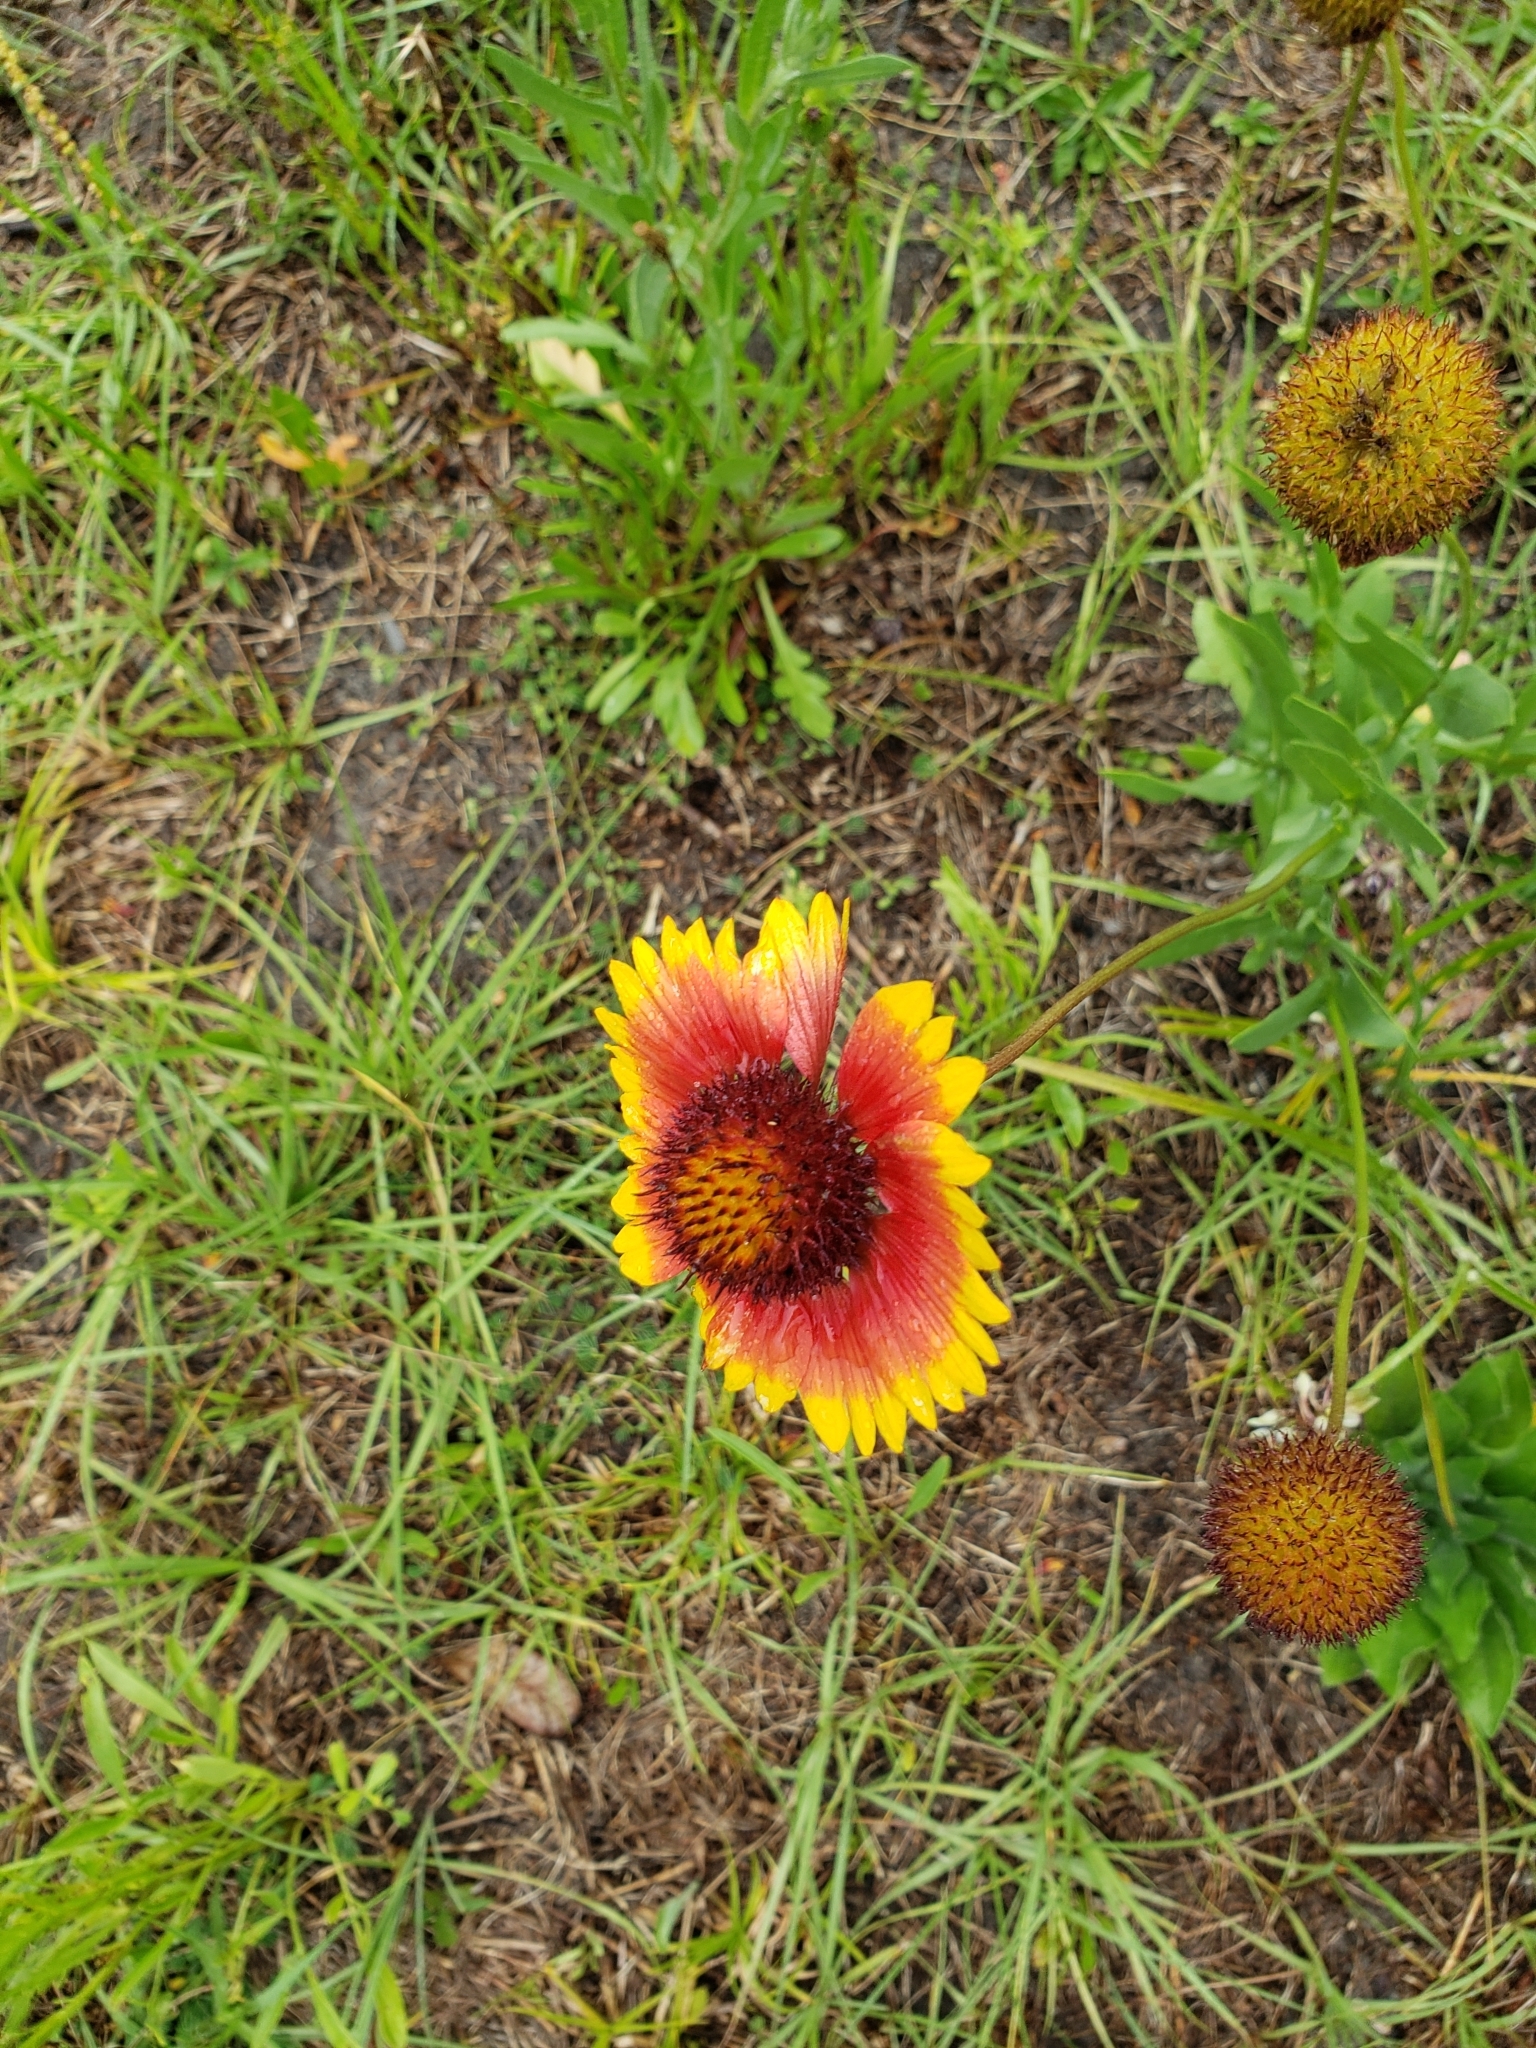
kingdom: Plantae
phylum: Tracheophyta
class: Magnoliopsida
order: Asterales
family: Asteraceae
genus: Gaillardia
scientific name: Gaillardia pulchella
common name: Firewheel
